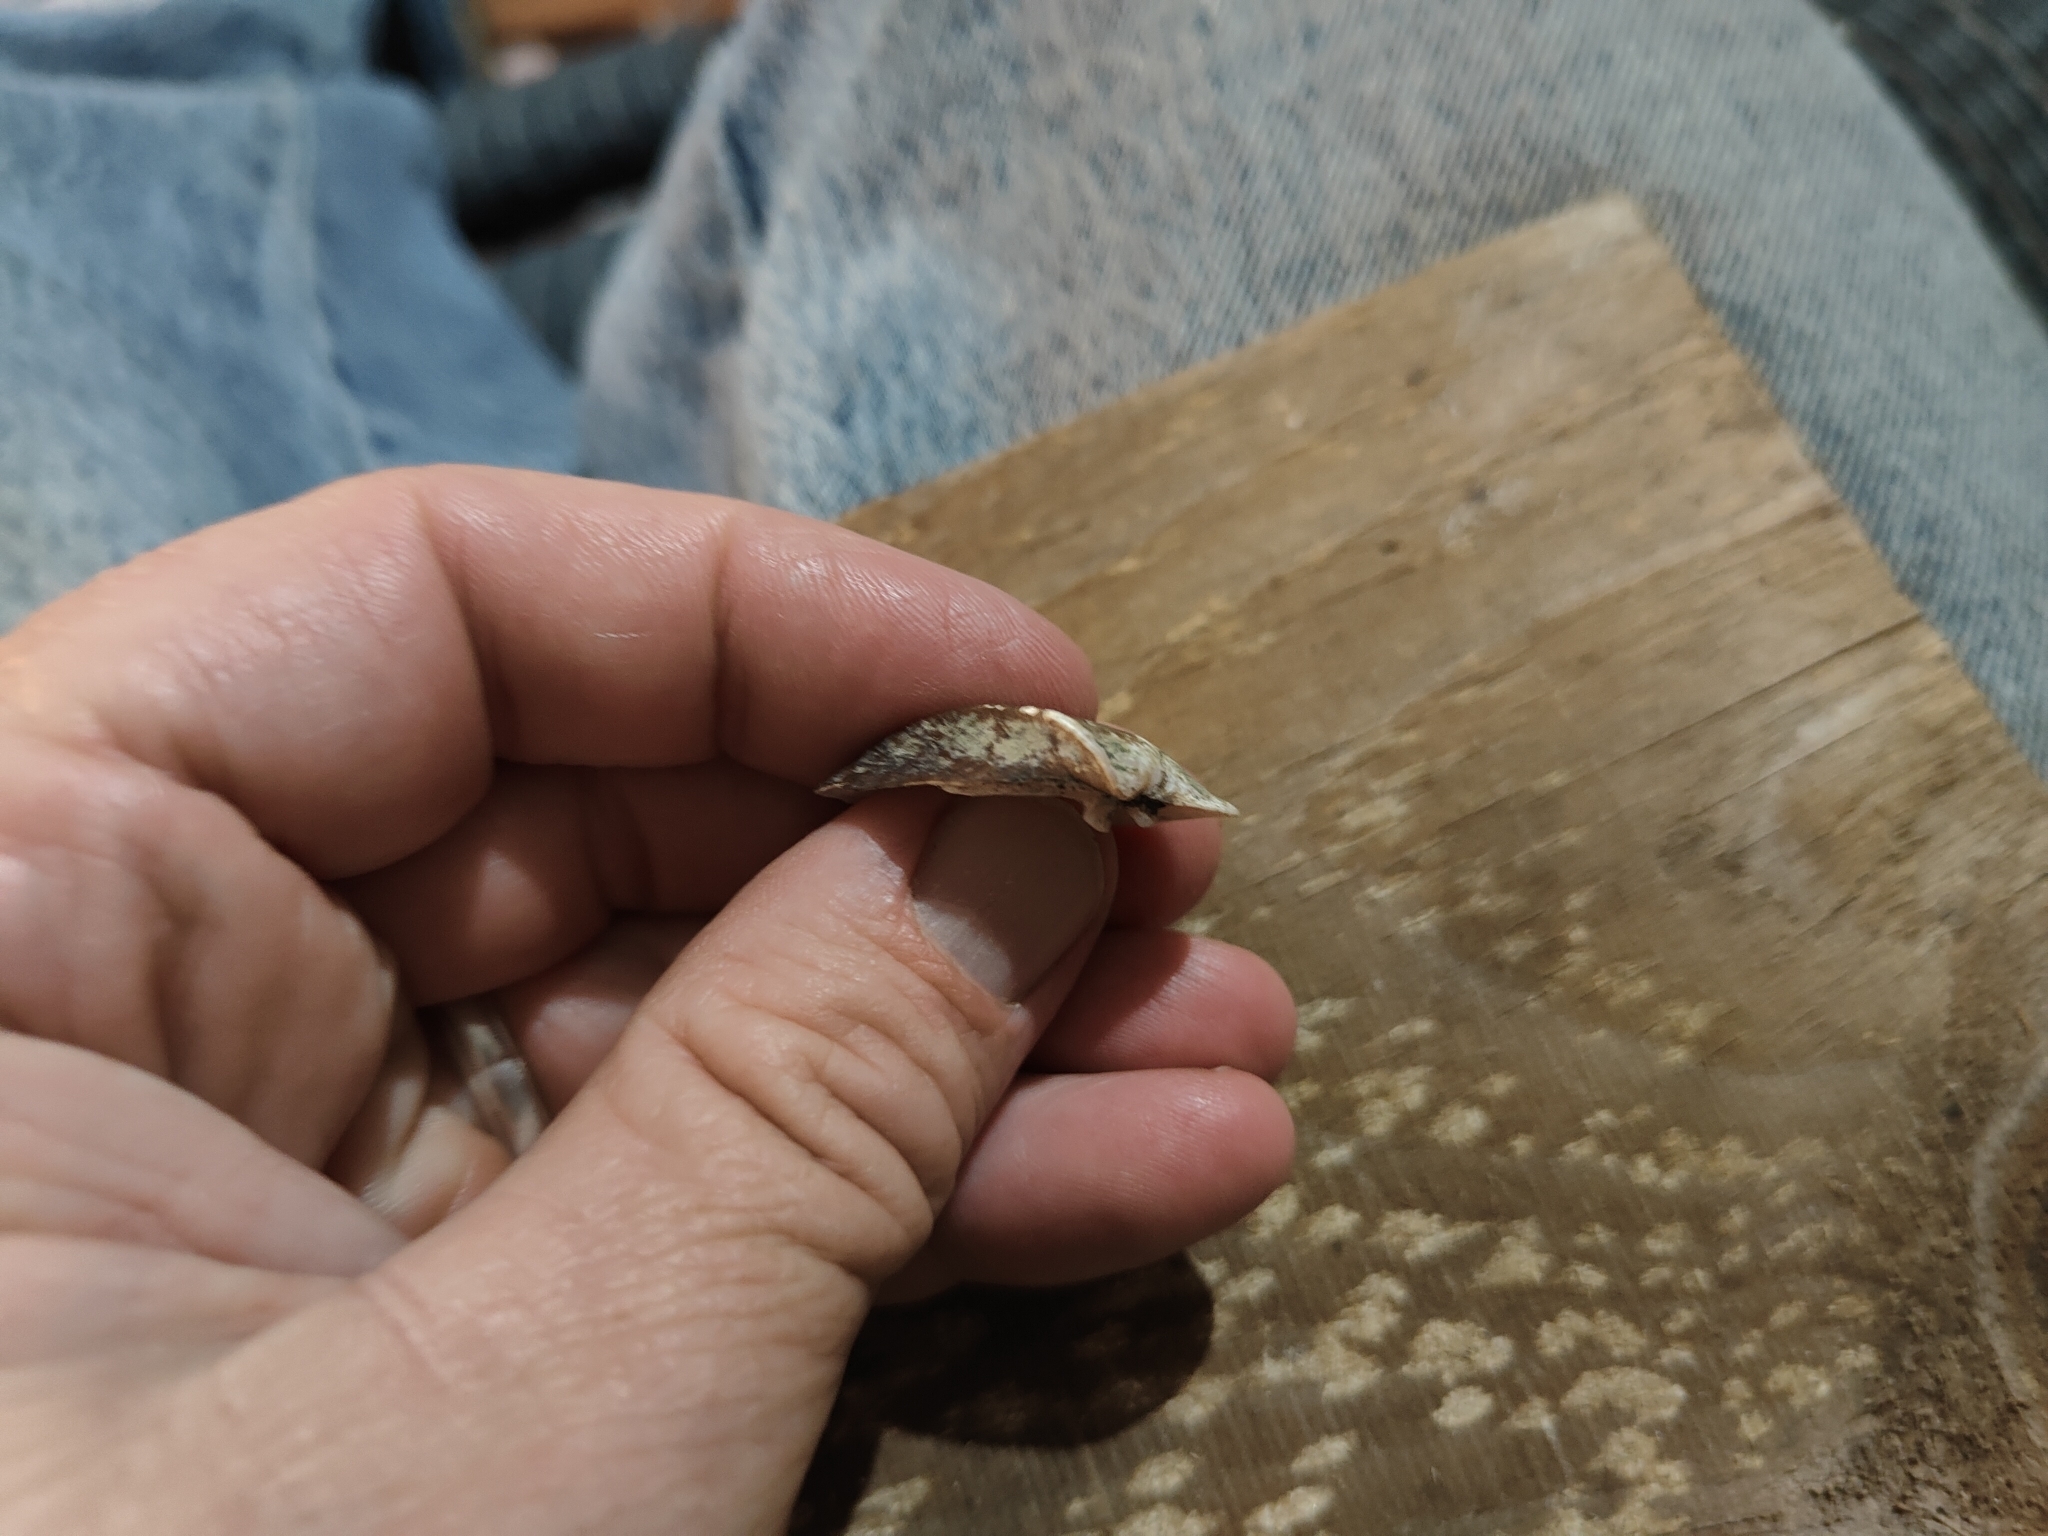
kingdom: Animalia
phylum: Mollusca
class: Bivalvia
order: Unionida
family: Unionidae
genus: Truncilla
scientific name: Truncilla truncata
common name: Deertoe
